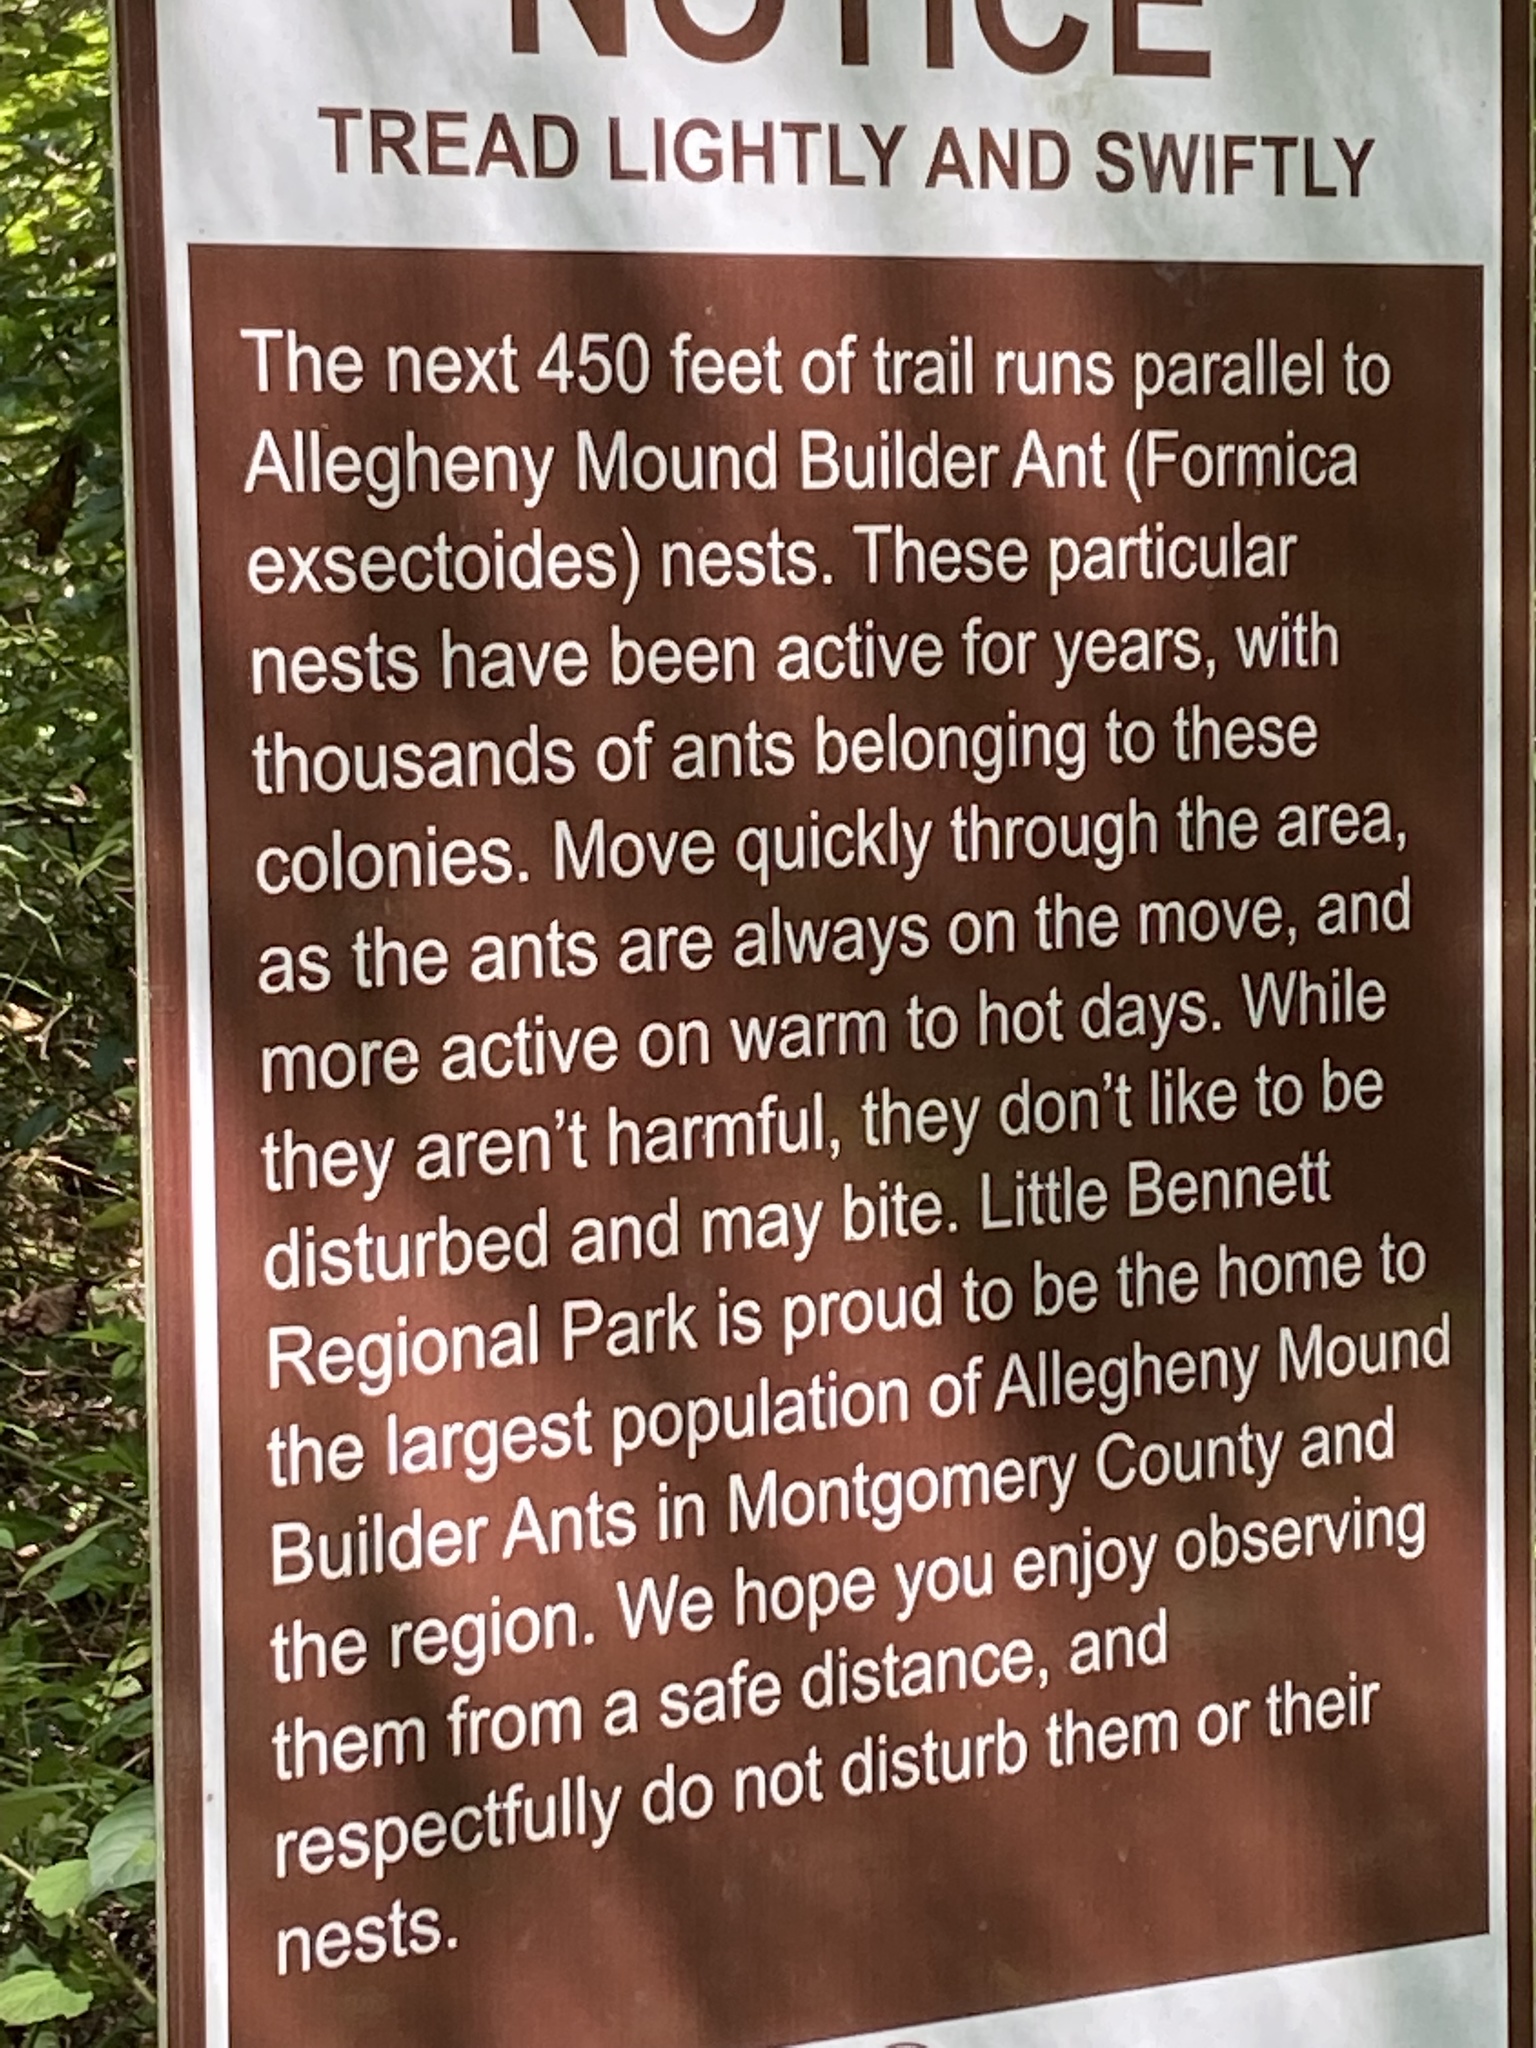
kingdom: Animalia
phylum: Arthropoda
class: Insecta
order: Hymenoptera
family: Formicidae
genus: Formica
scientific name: Formica exsectoides
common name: Allegheny mound ant
